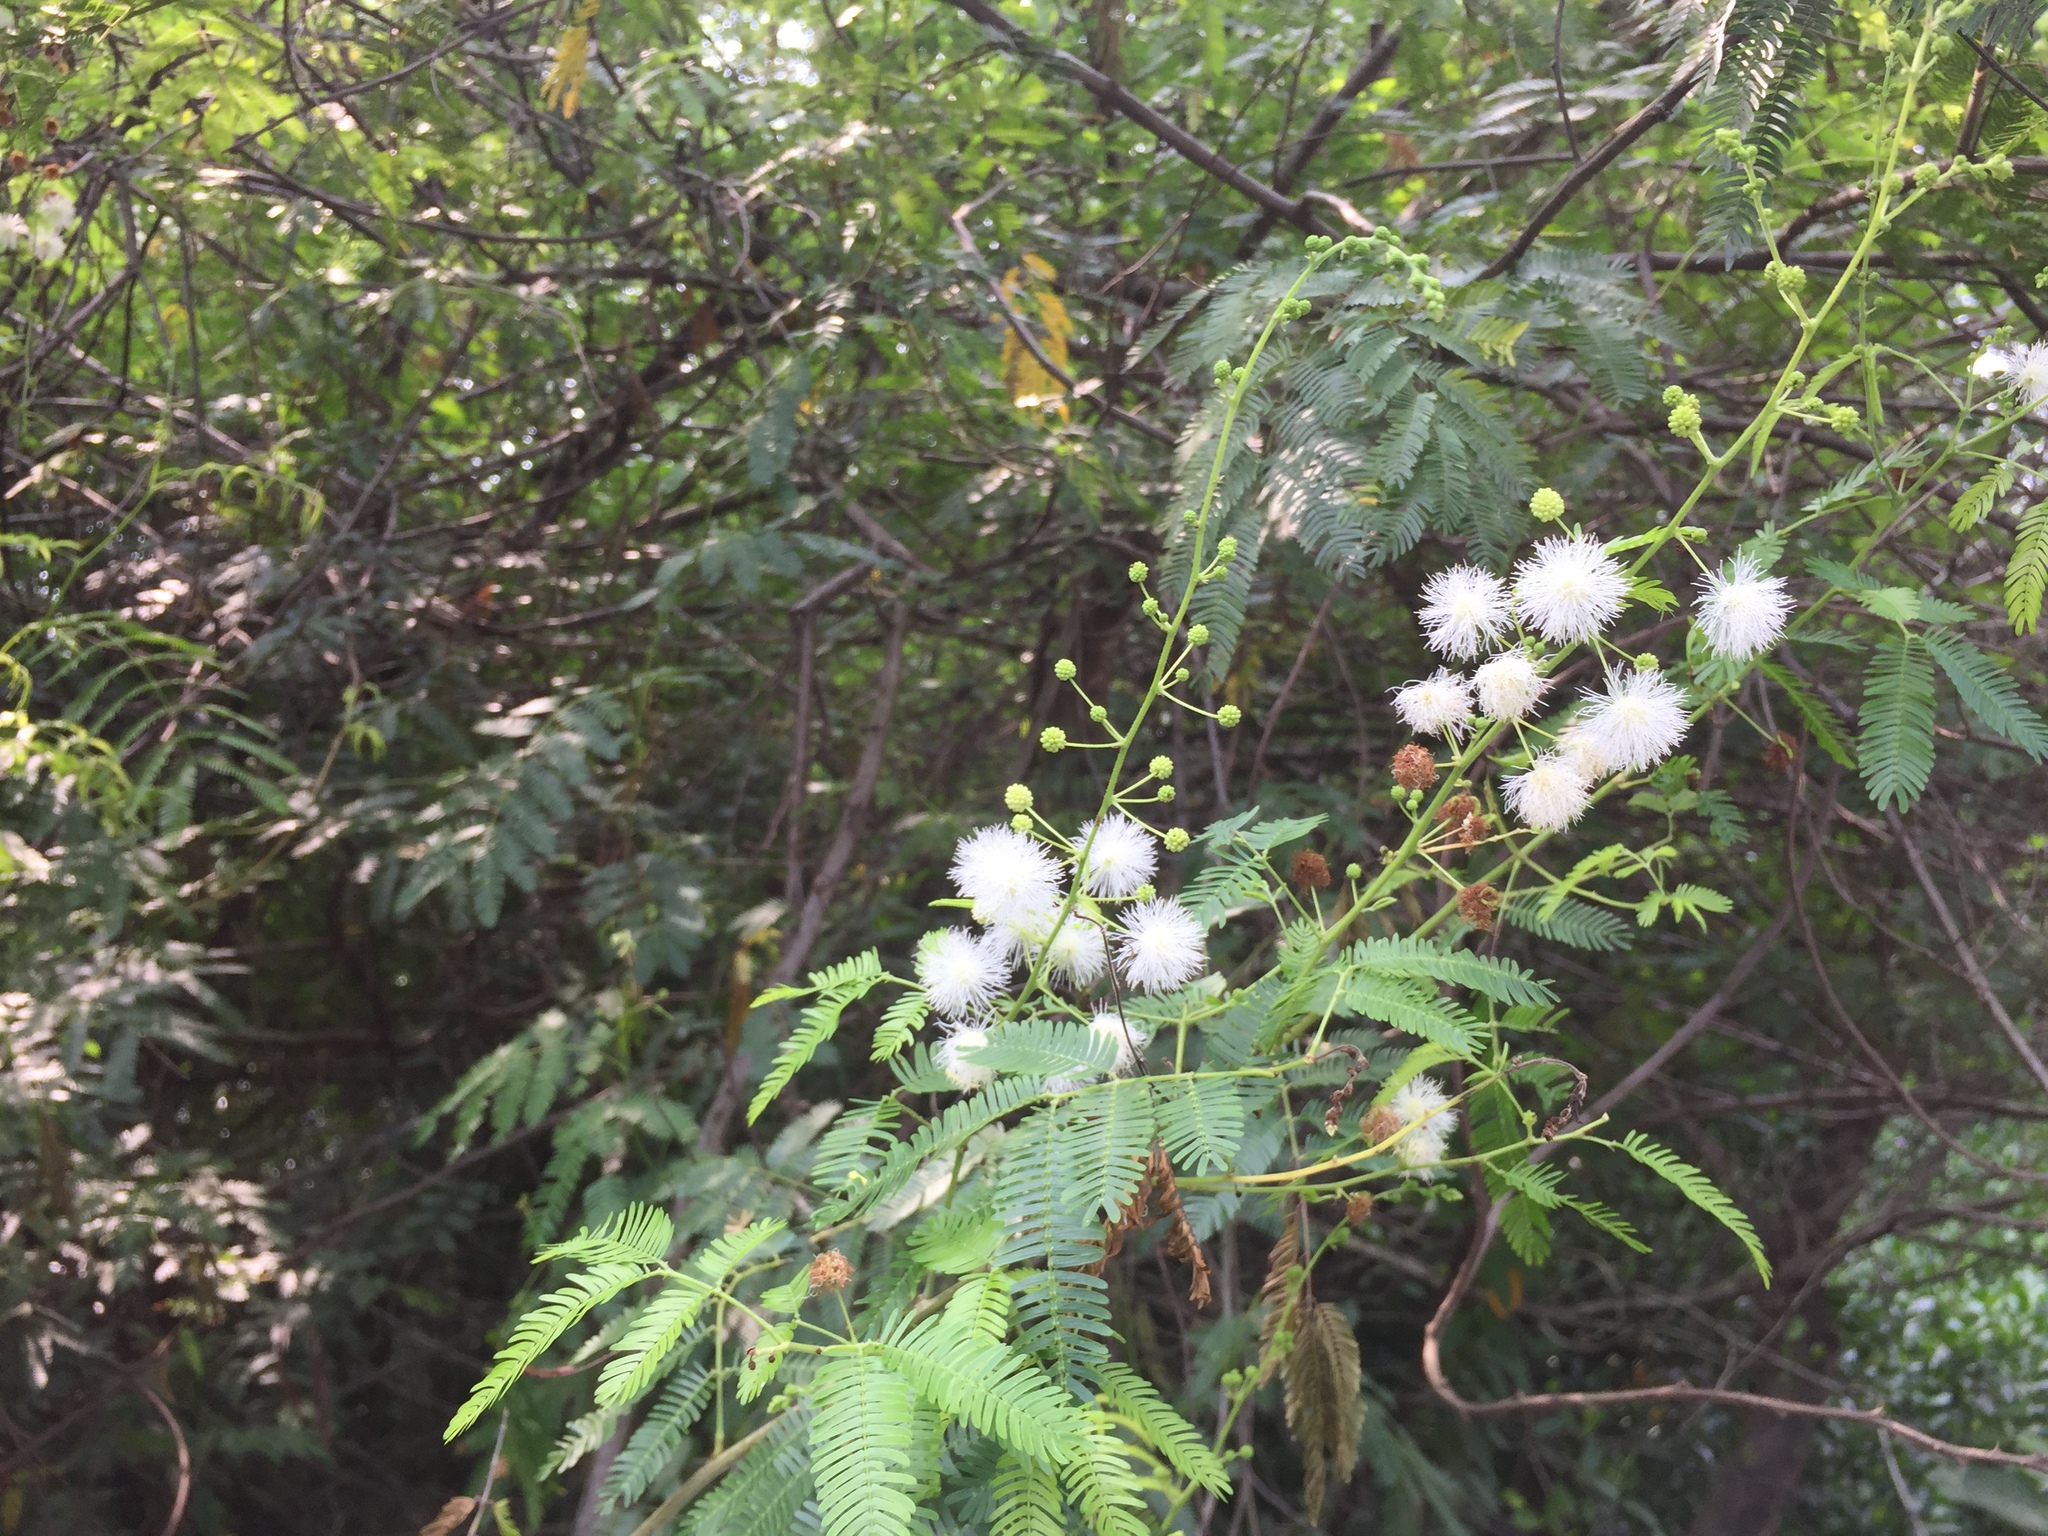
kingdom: Plantae
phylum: Tracheophyta
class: Magnoliopsida
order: Fabales
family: Fabaceae
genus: Mimosa
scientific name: Mimosa bimucronata
